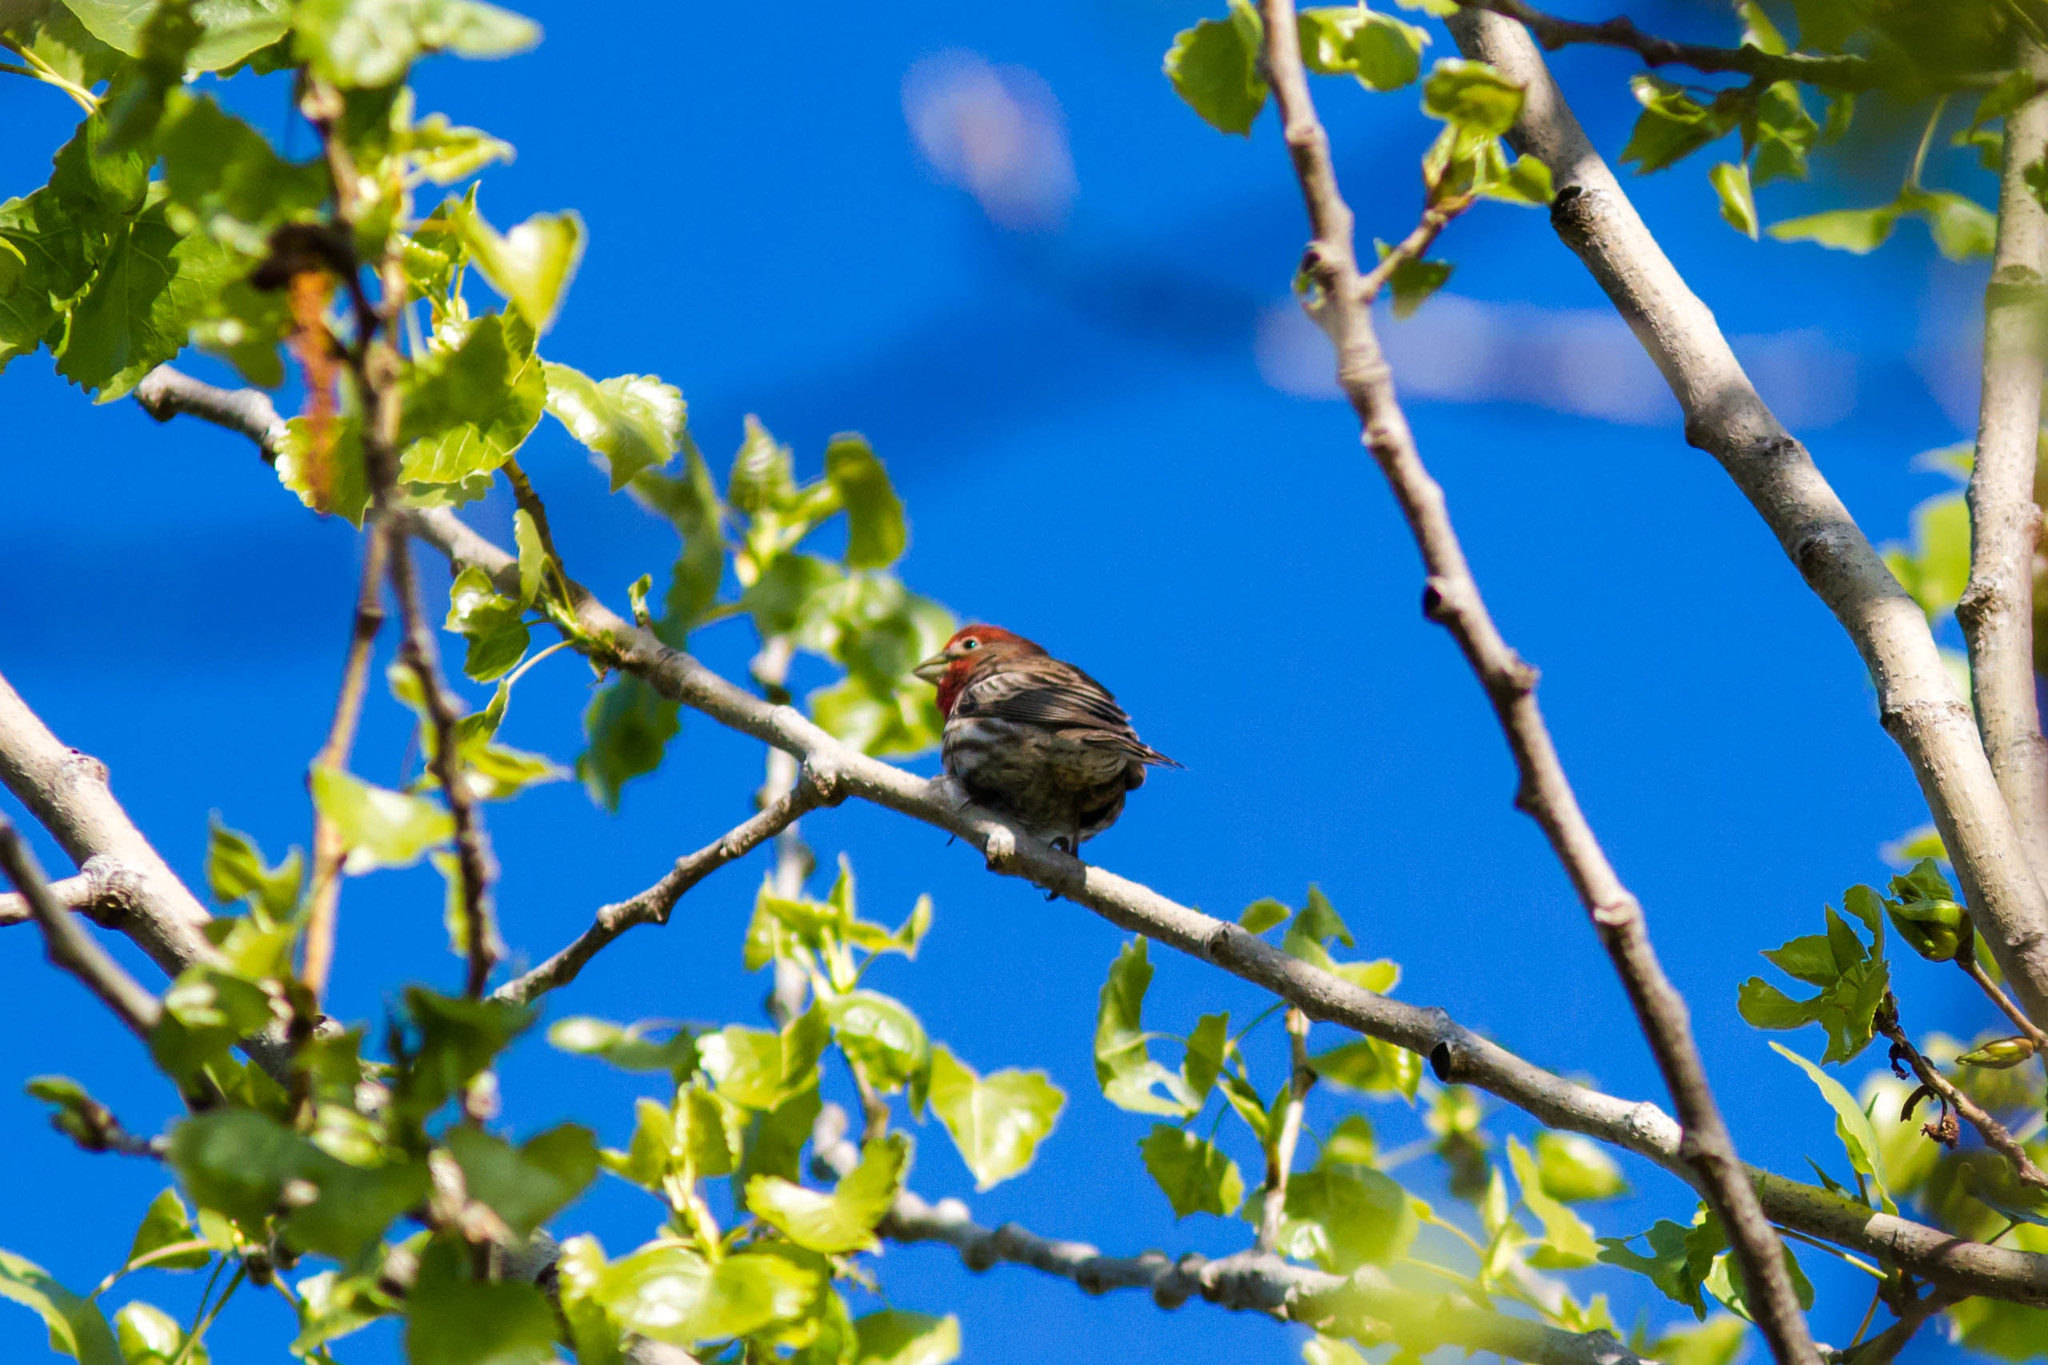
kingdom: Animalia
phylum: Chordata
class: Aves
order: Passeriformes
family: Fringillidae
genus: Haemorhous
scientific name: Haemorhous mexicanus
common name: House finch
